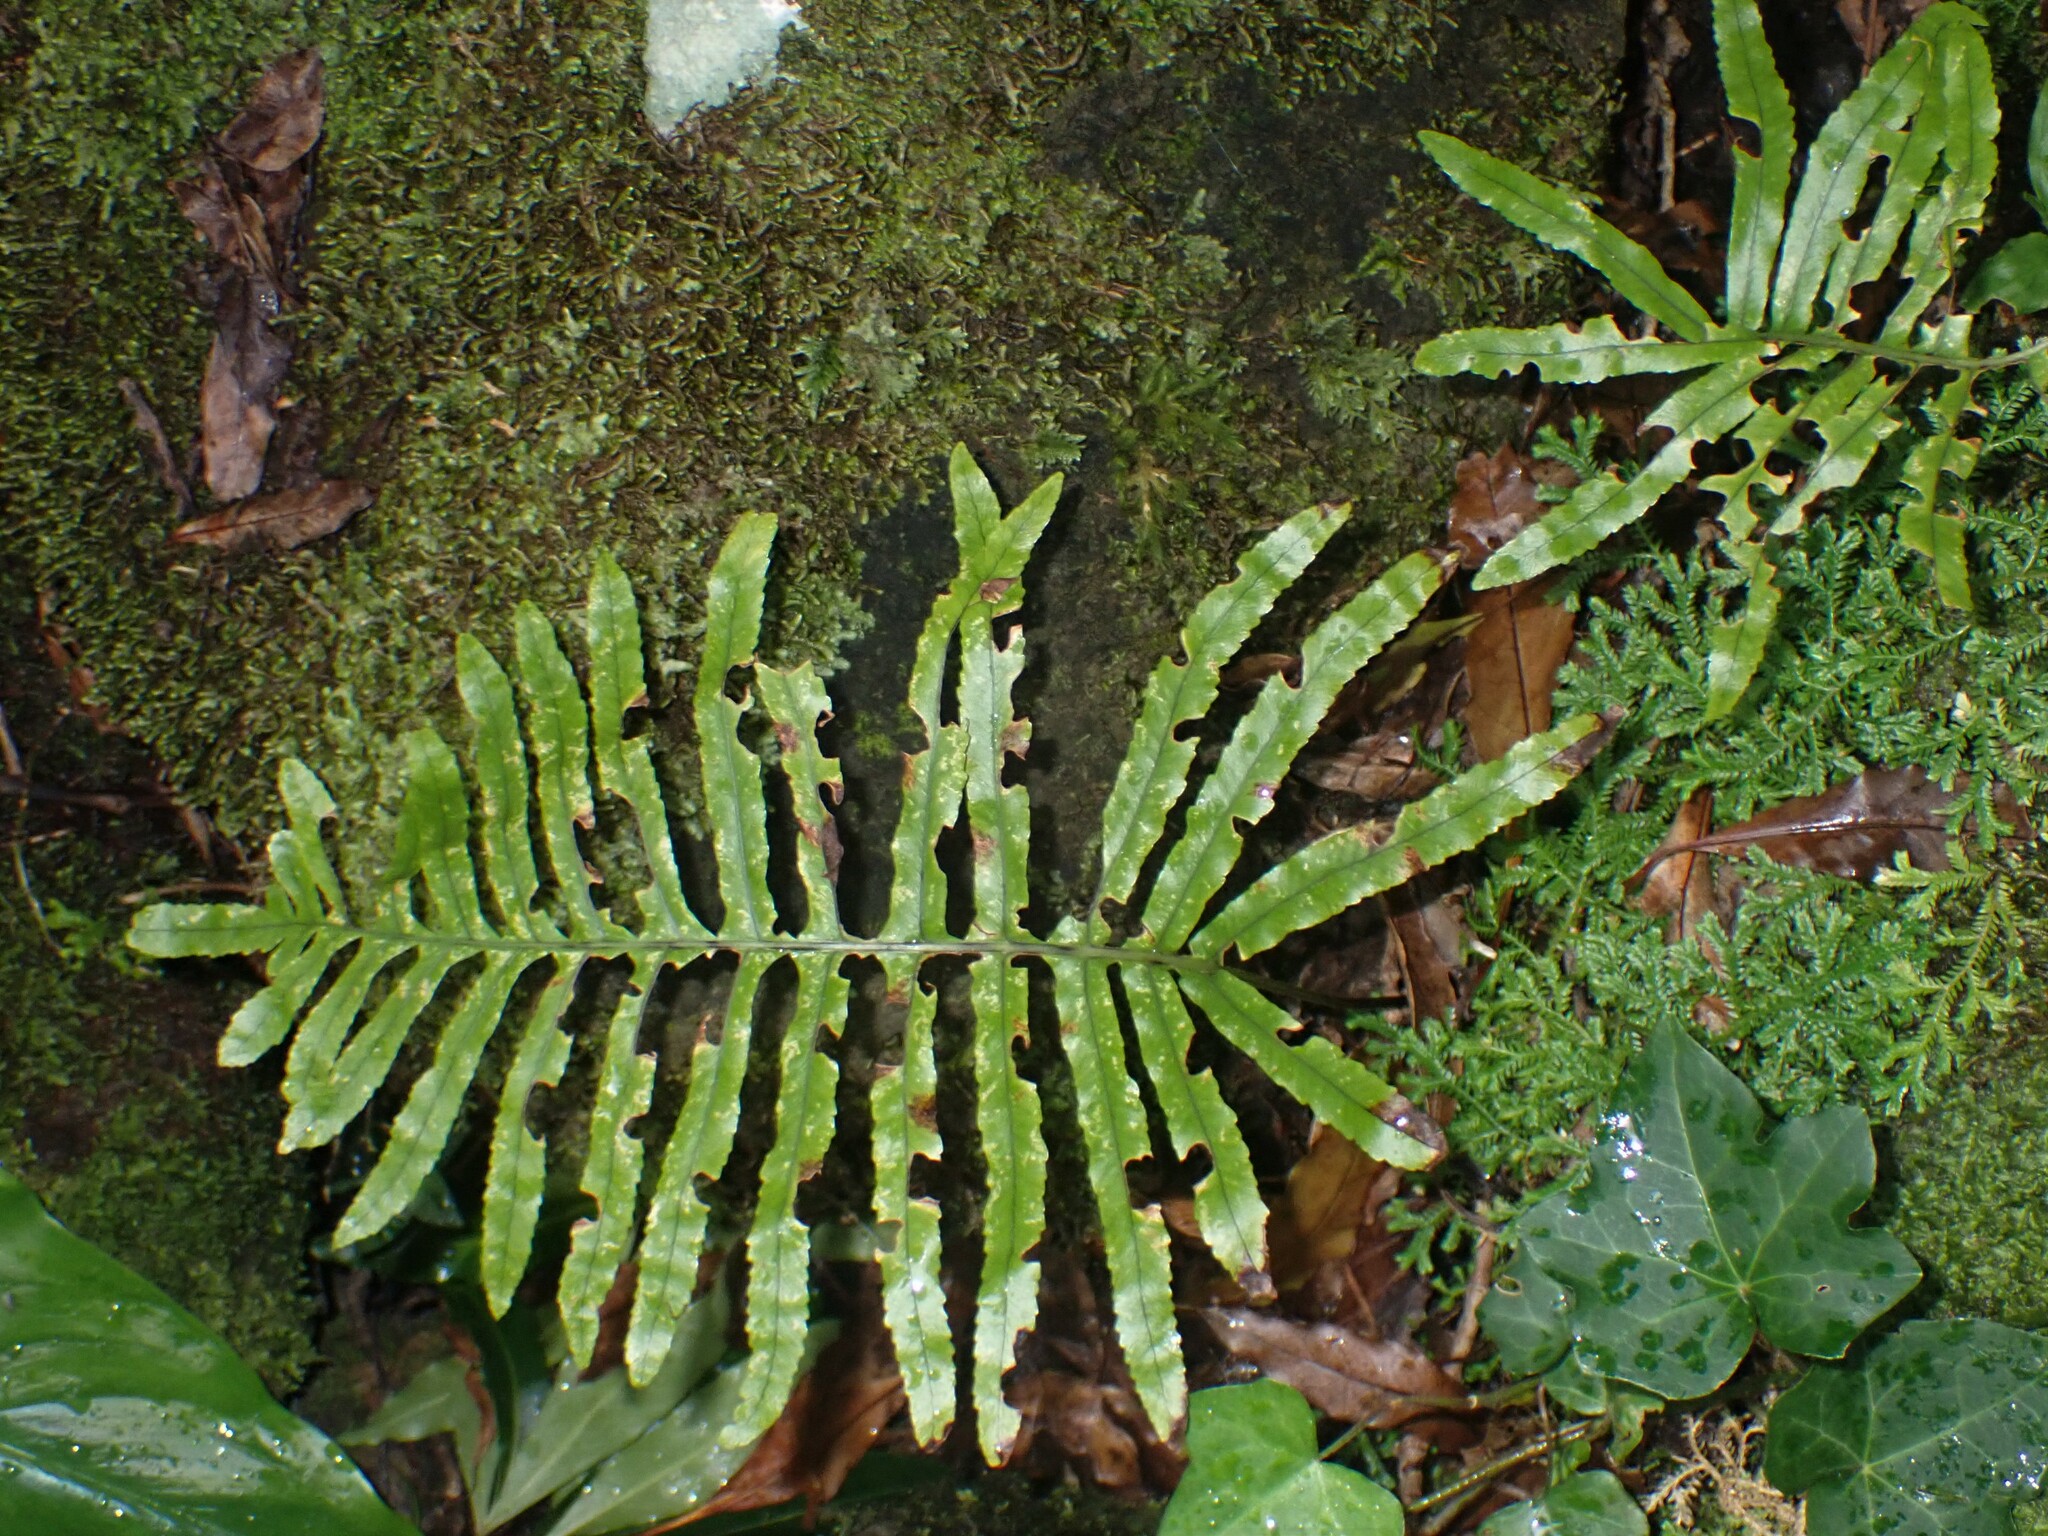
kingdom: Plantae
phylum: Tracheophyta
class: Polypodiopsida
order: Polypodiales
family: Polypodiaceae
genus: Polypodium
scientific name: Polypodium macaronesicum
